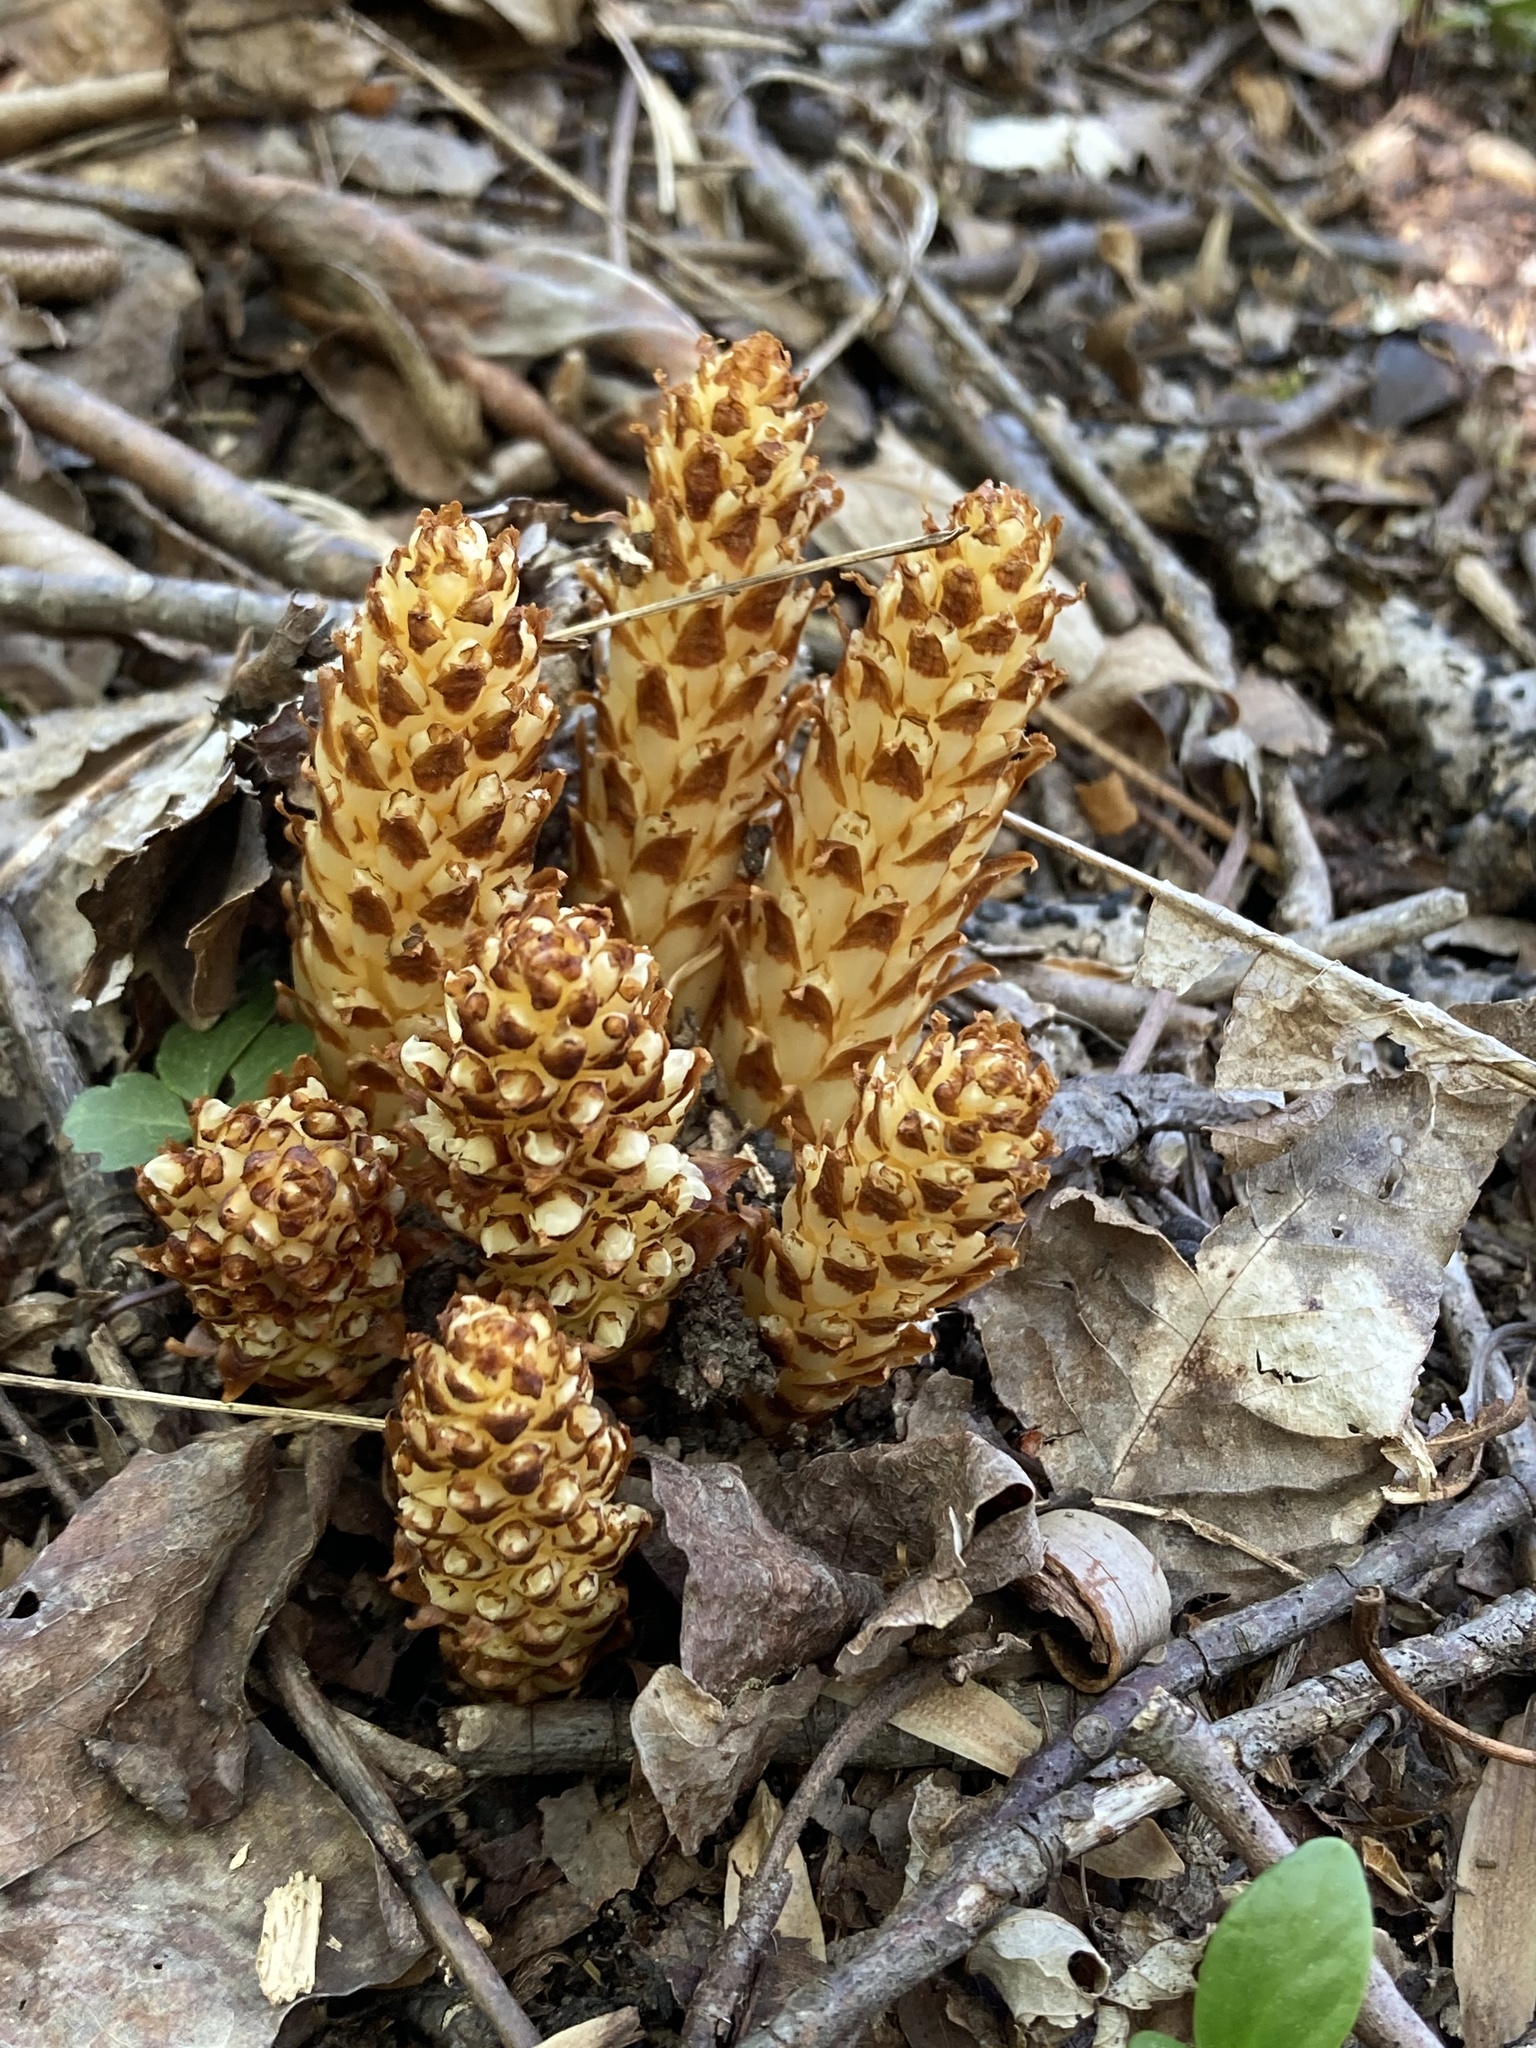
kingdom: Plantae
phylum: Tracheophyta
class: Magnoliopsida
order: Lamiales
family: Orobanchaceae
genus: Conopholis
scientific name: Conopholis americana
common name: American cancer-root
